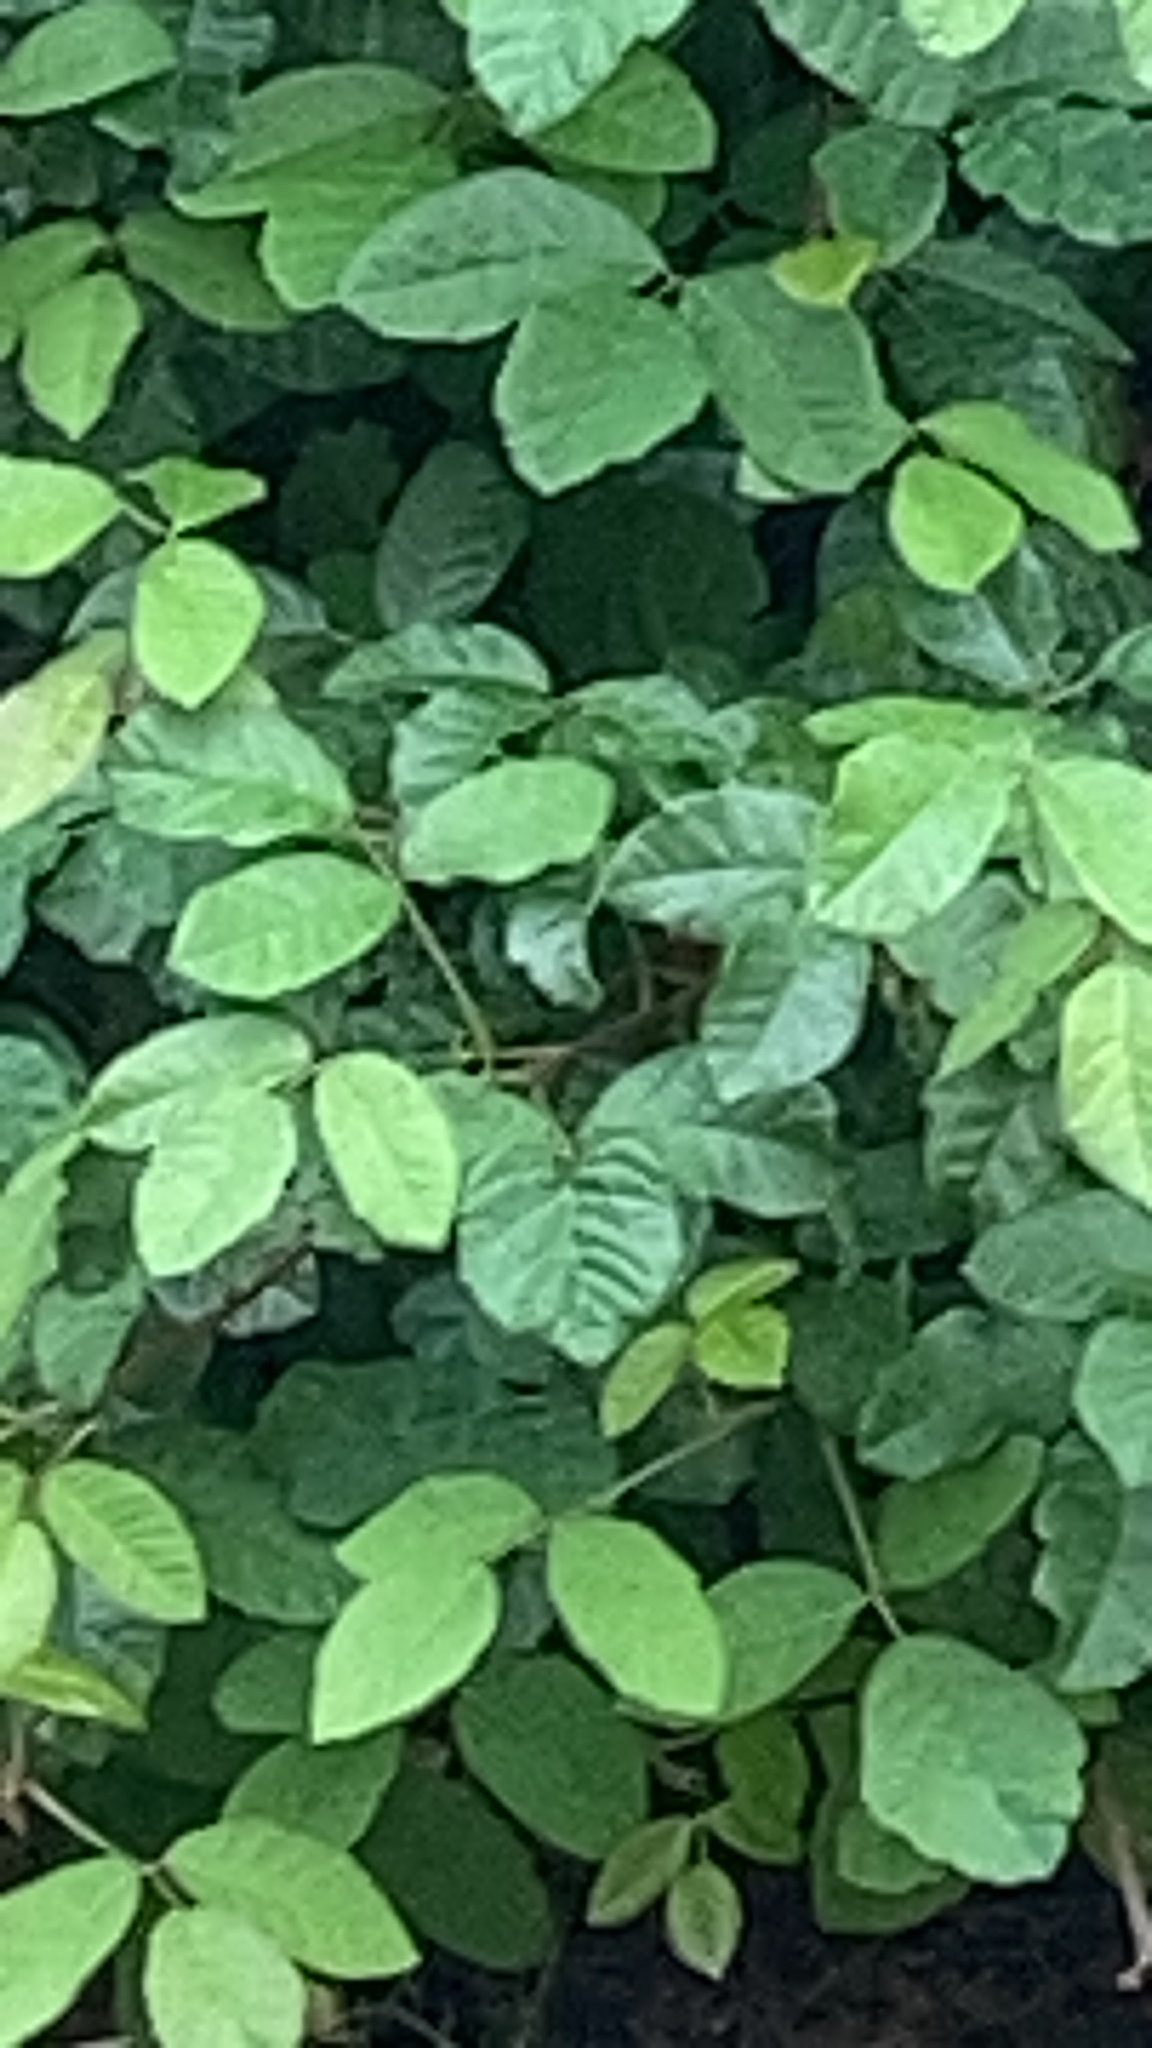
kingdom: Plantae
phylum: Tracheophyta
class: Magnoliopsida
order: Sapindales
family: Anacardiaceae
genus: Toxicodendron
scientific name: Toxicodendron diversilobum
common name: Pacific poison-oak
